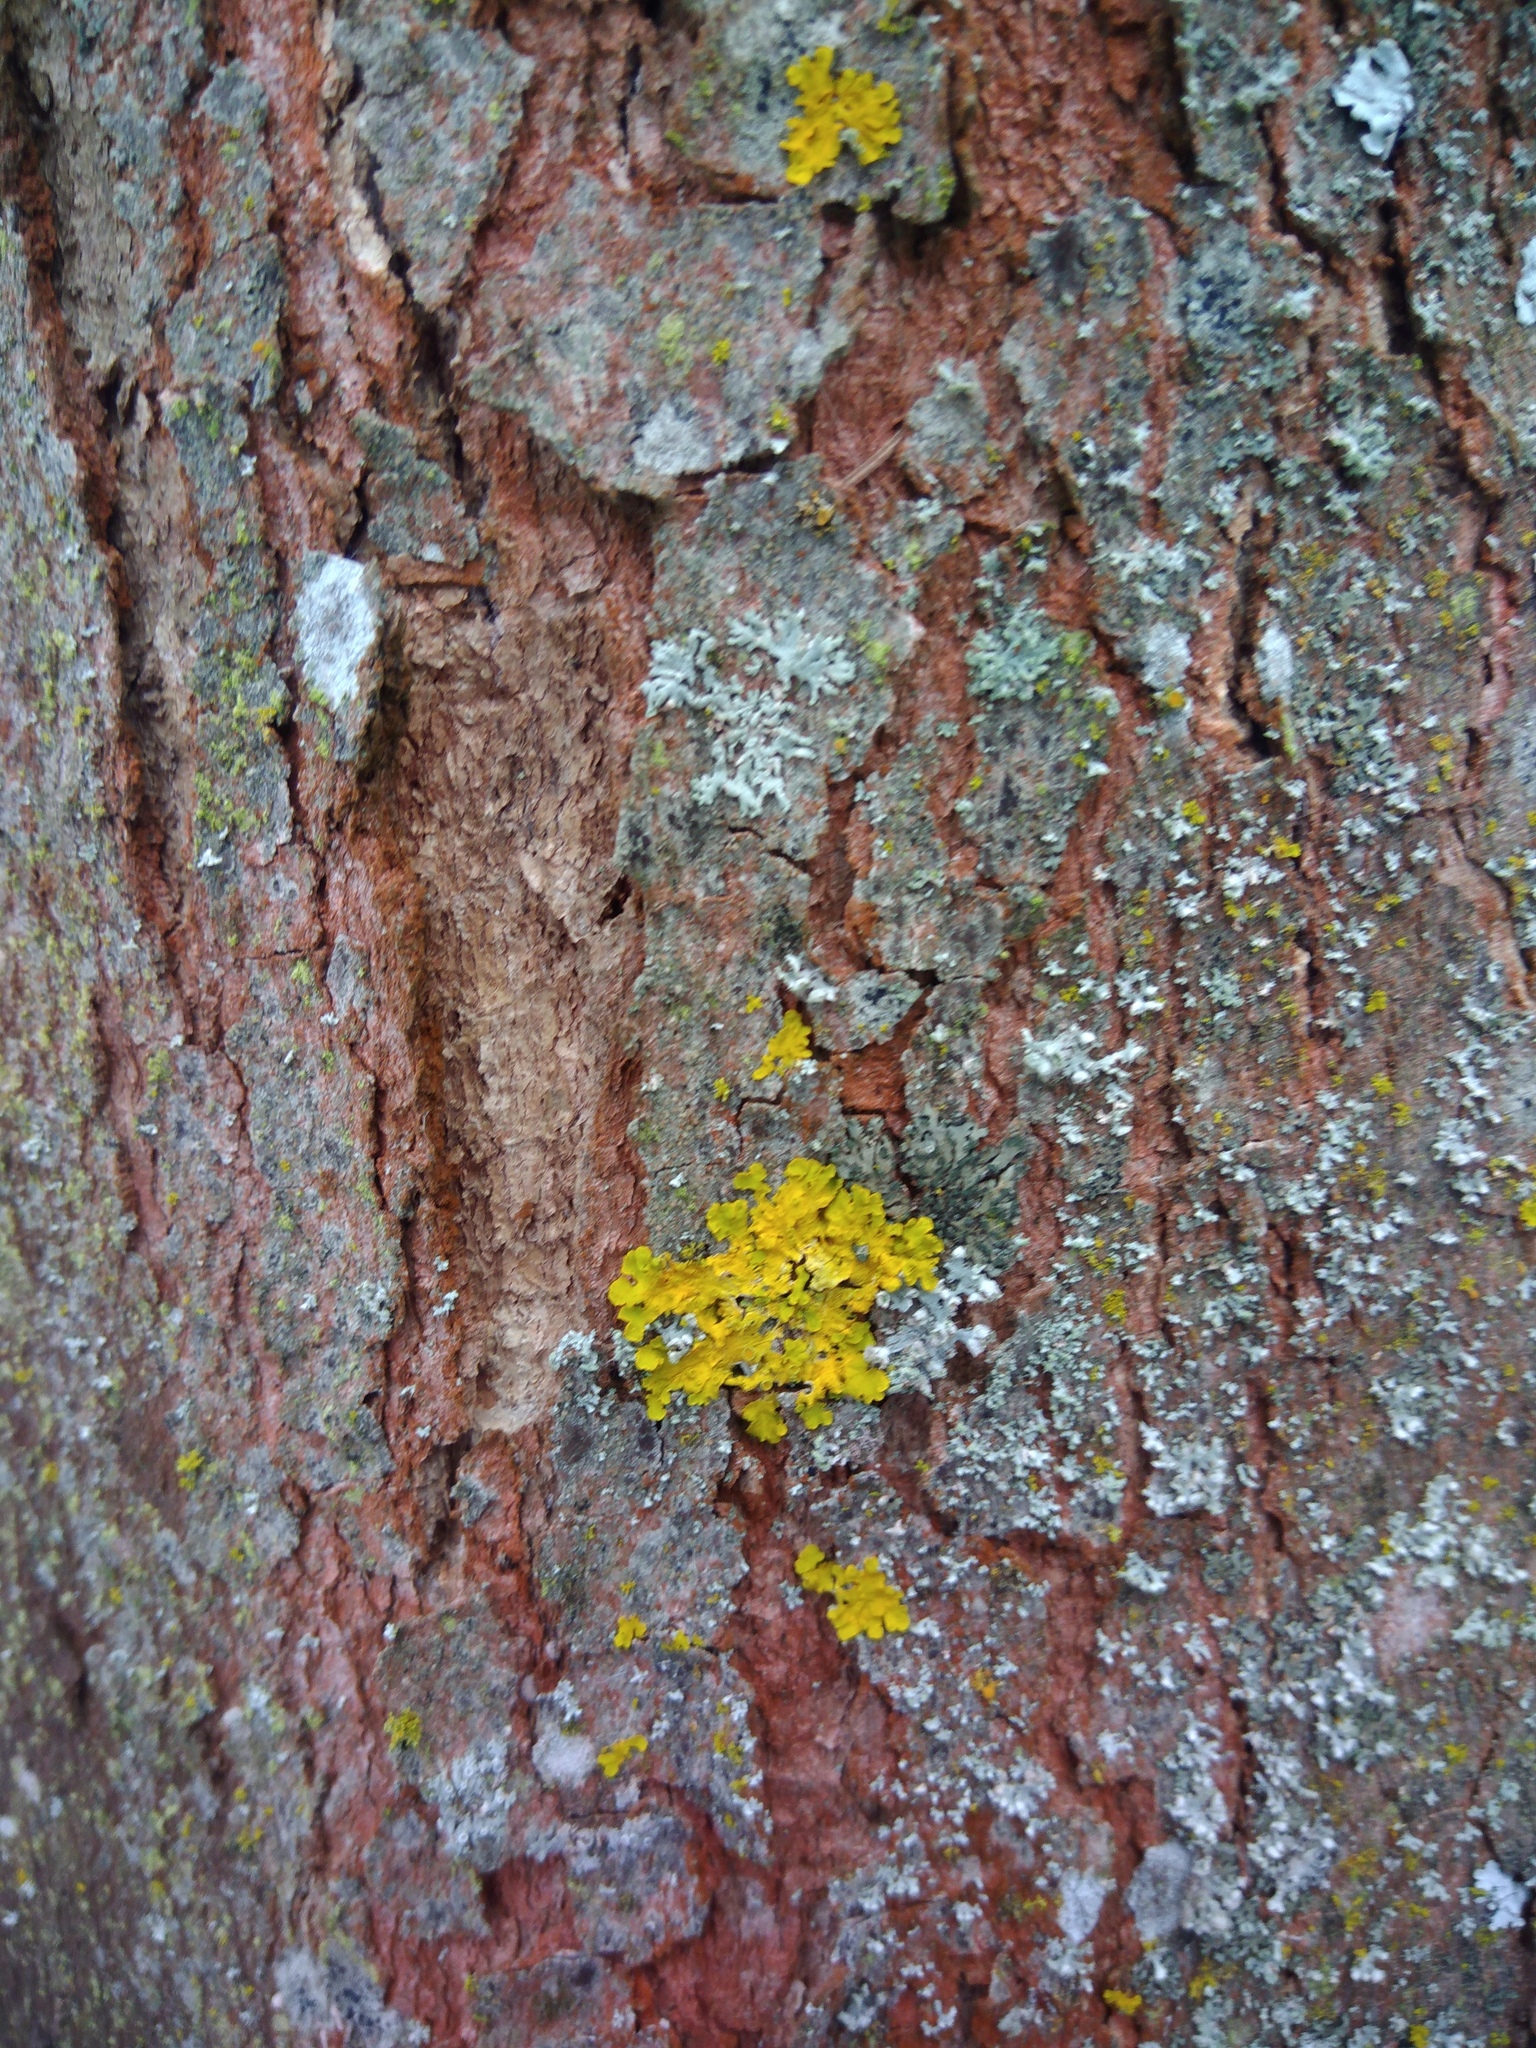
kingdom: Fungi
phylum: Ascomycota
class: Lecanoromycetes
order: Teloschistales
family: Teloschistaceae
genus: Xanthoria
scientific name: Xanthoria parietina
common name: Common orange lichen
